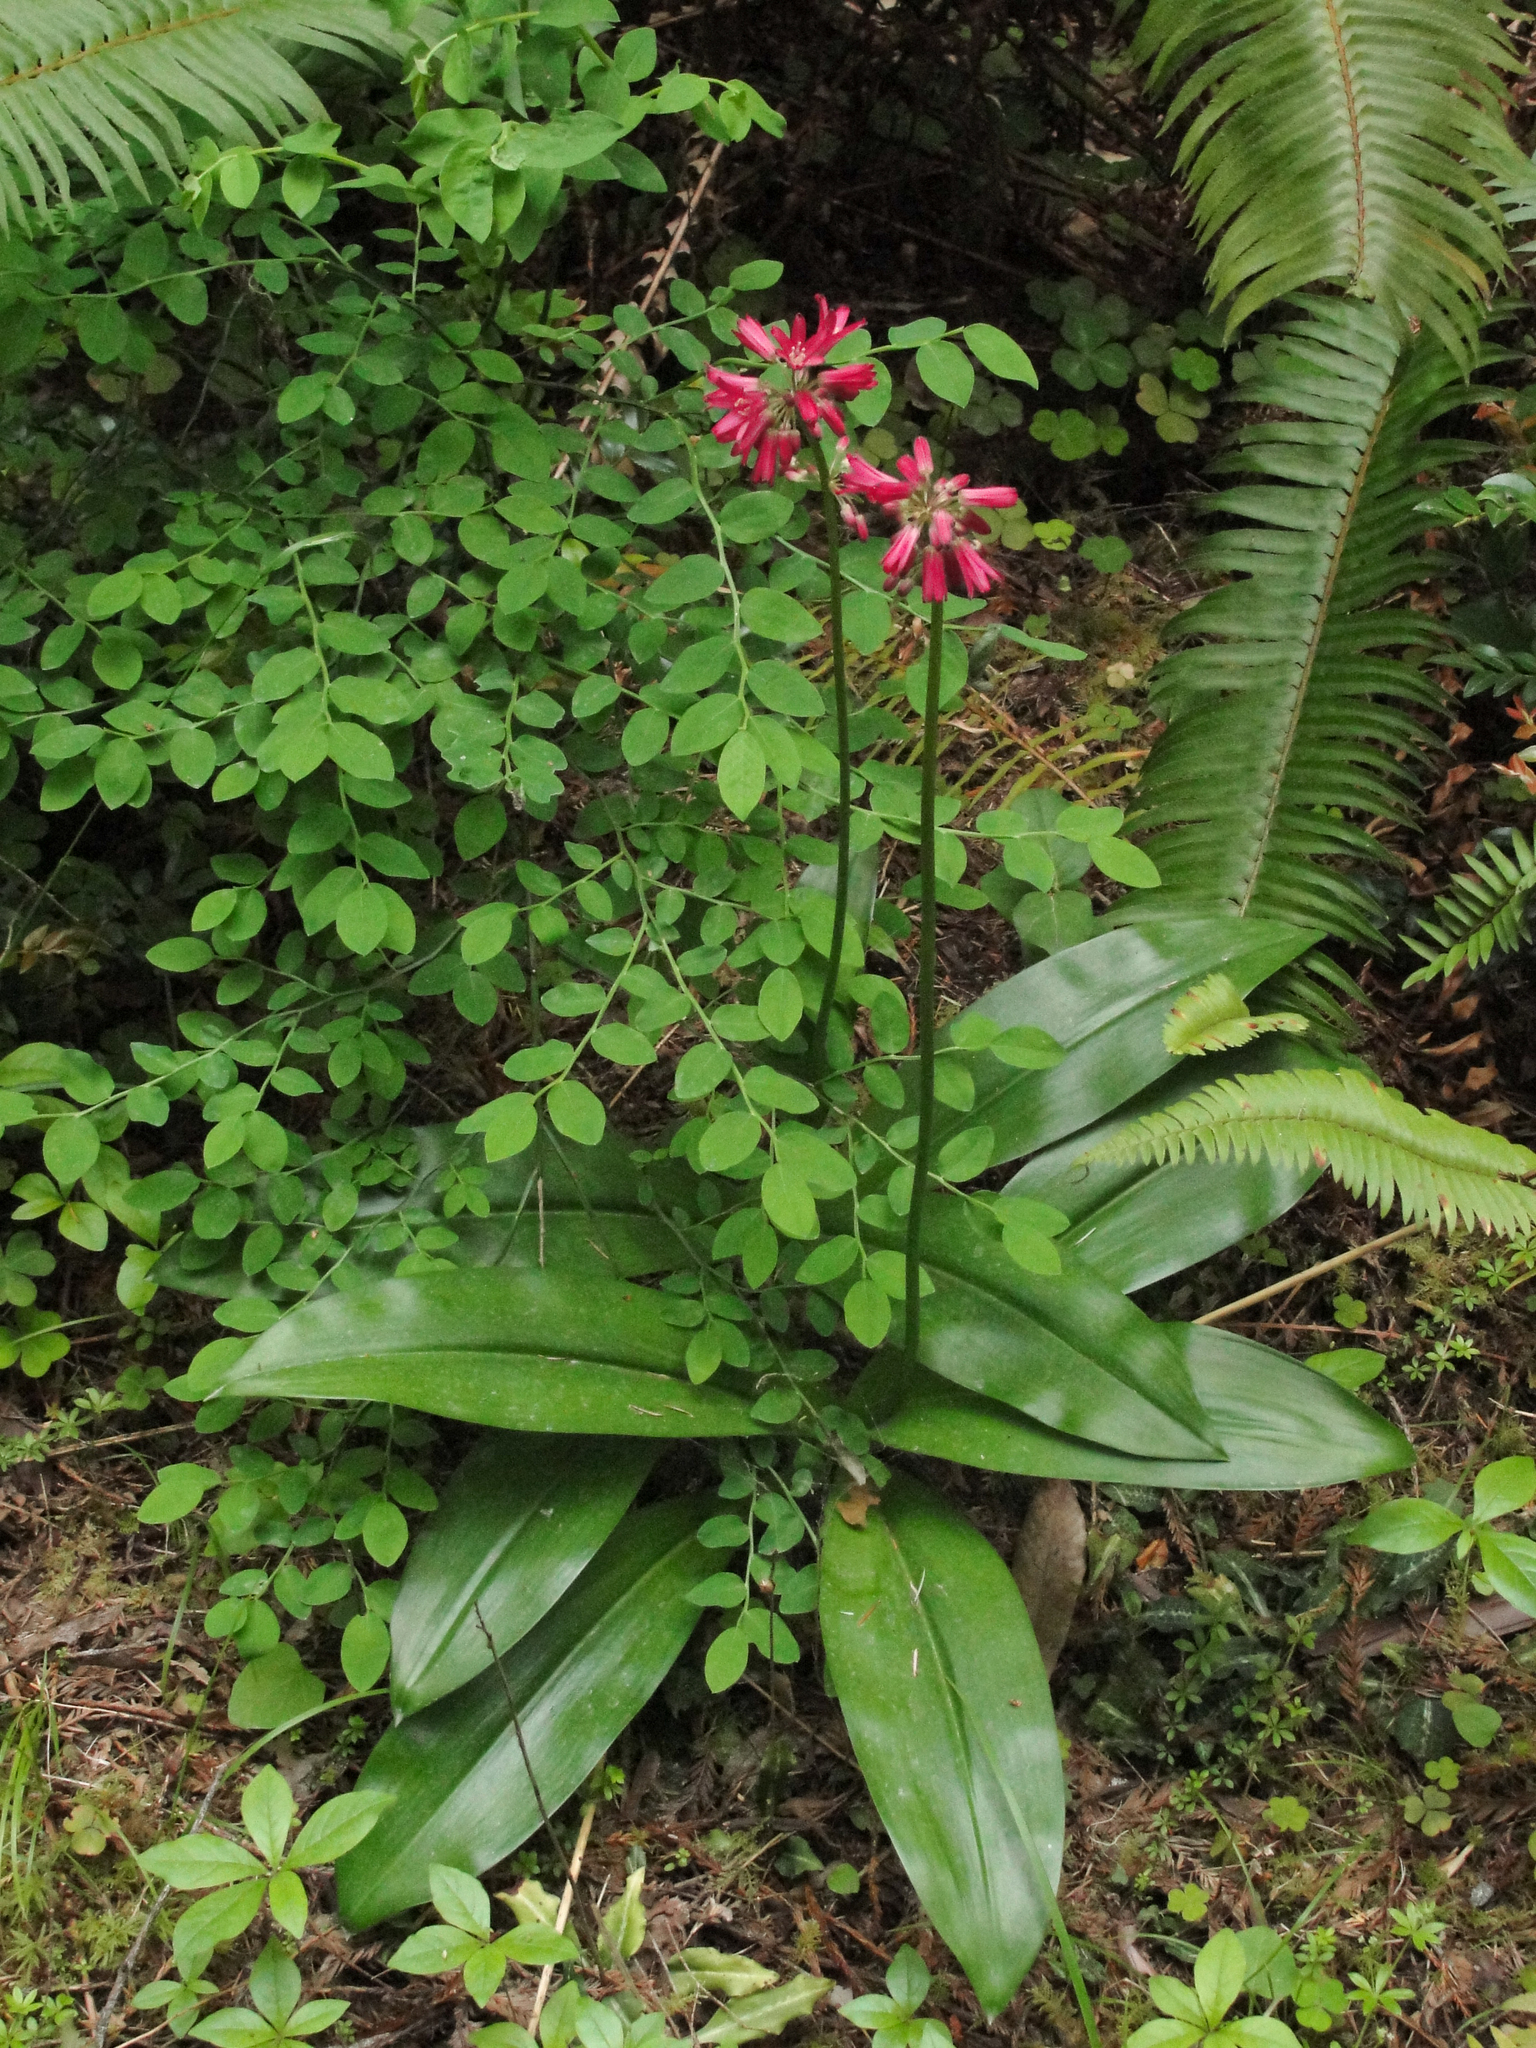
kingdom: Plantae
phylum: Tracheophyta
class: Liliopsida
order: Liliales
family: Liliaceae
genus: Clintonia
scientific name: Clintonia andrewsiana
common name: Red clintonia
